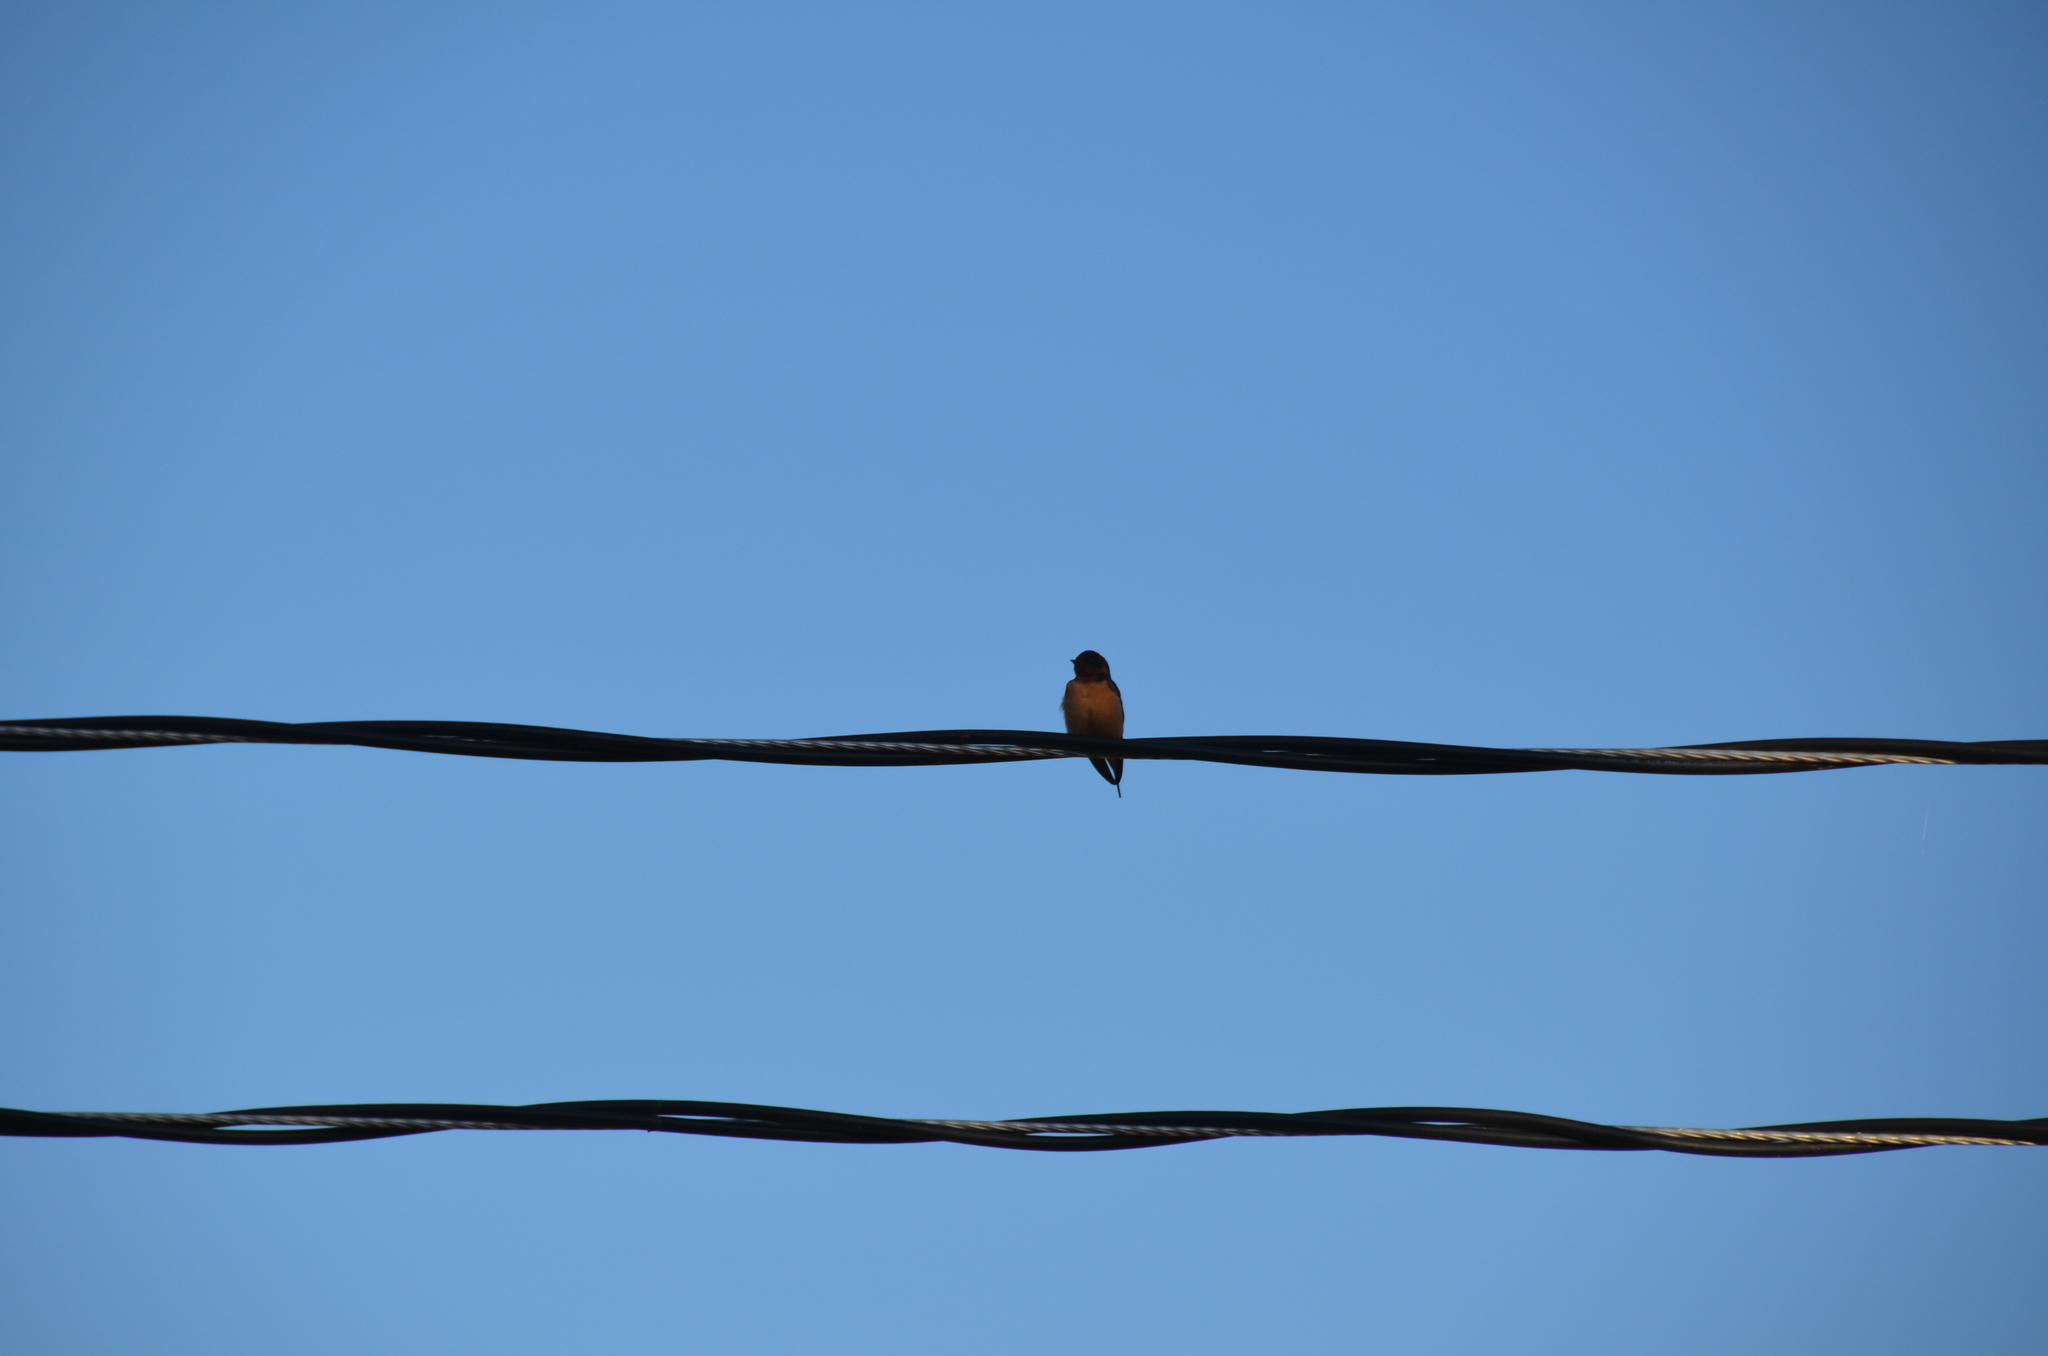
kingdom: Animalia
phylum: Chordata
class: Aves
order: Passeriformes
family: Hirundinidae
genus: Hirundo
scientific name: Hirundo rustica
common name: Barn swallow
